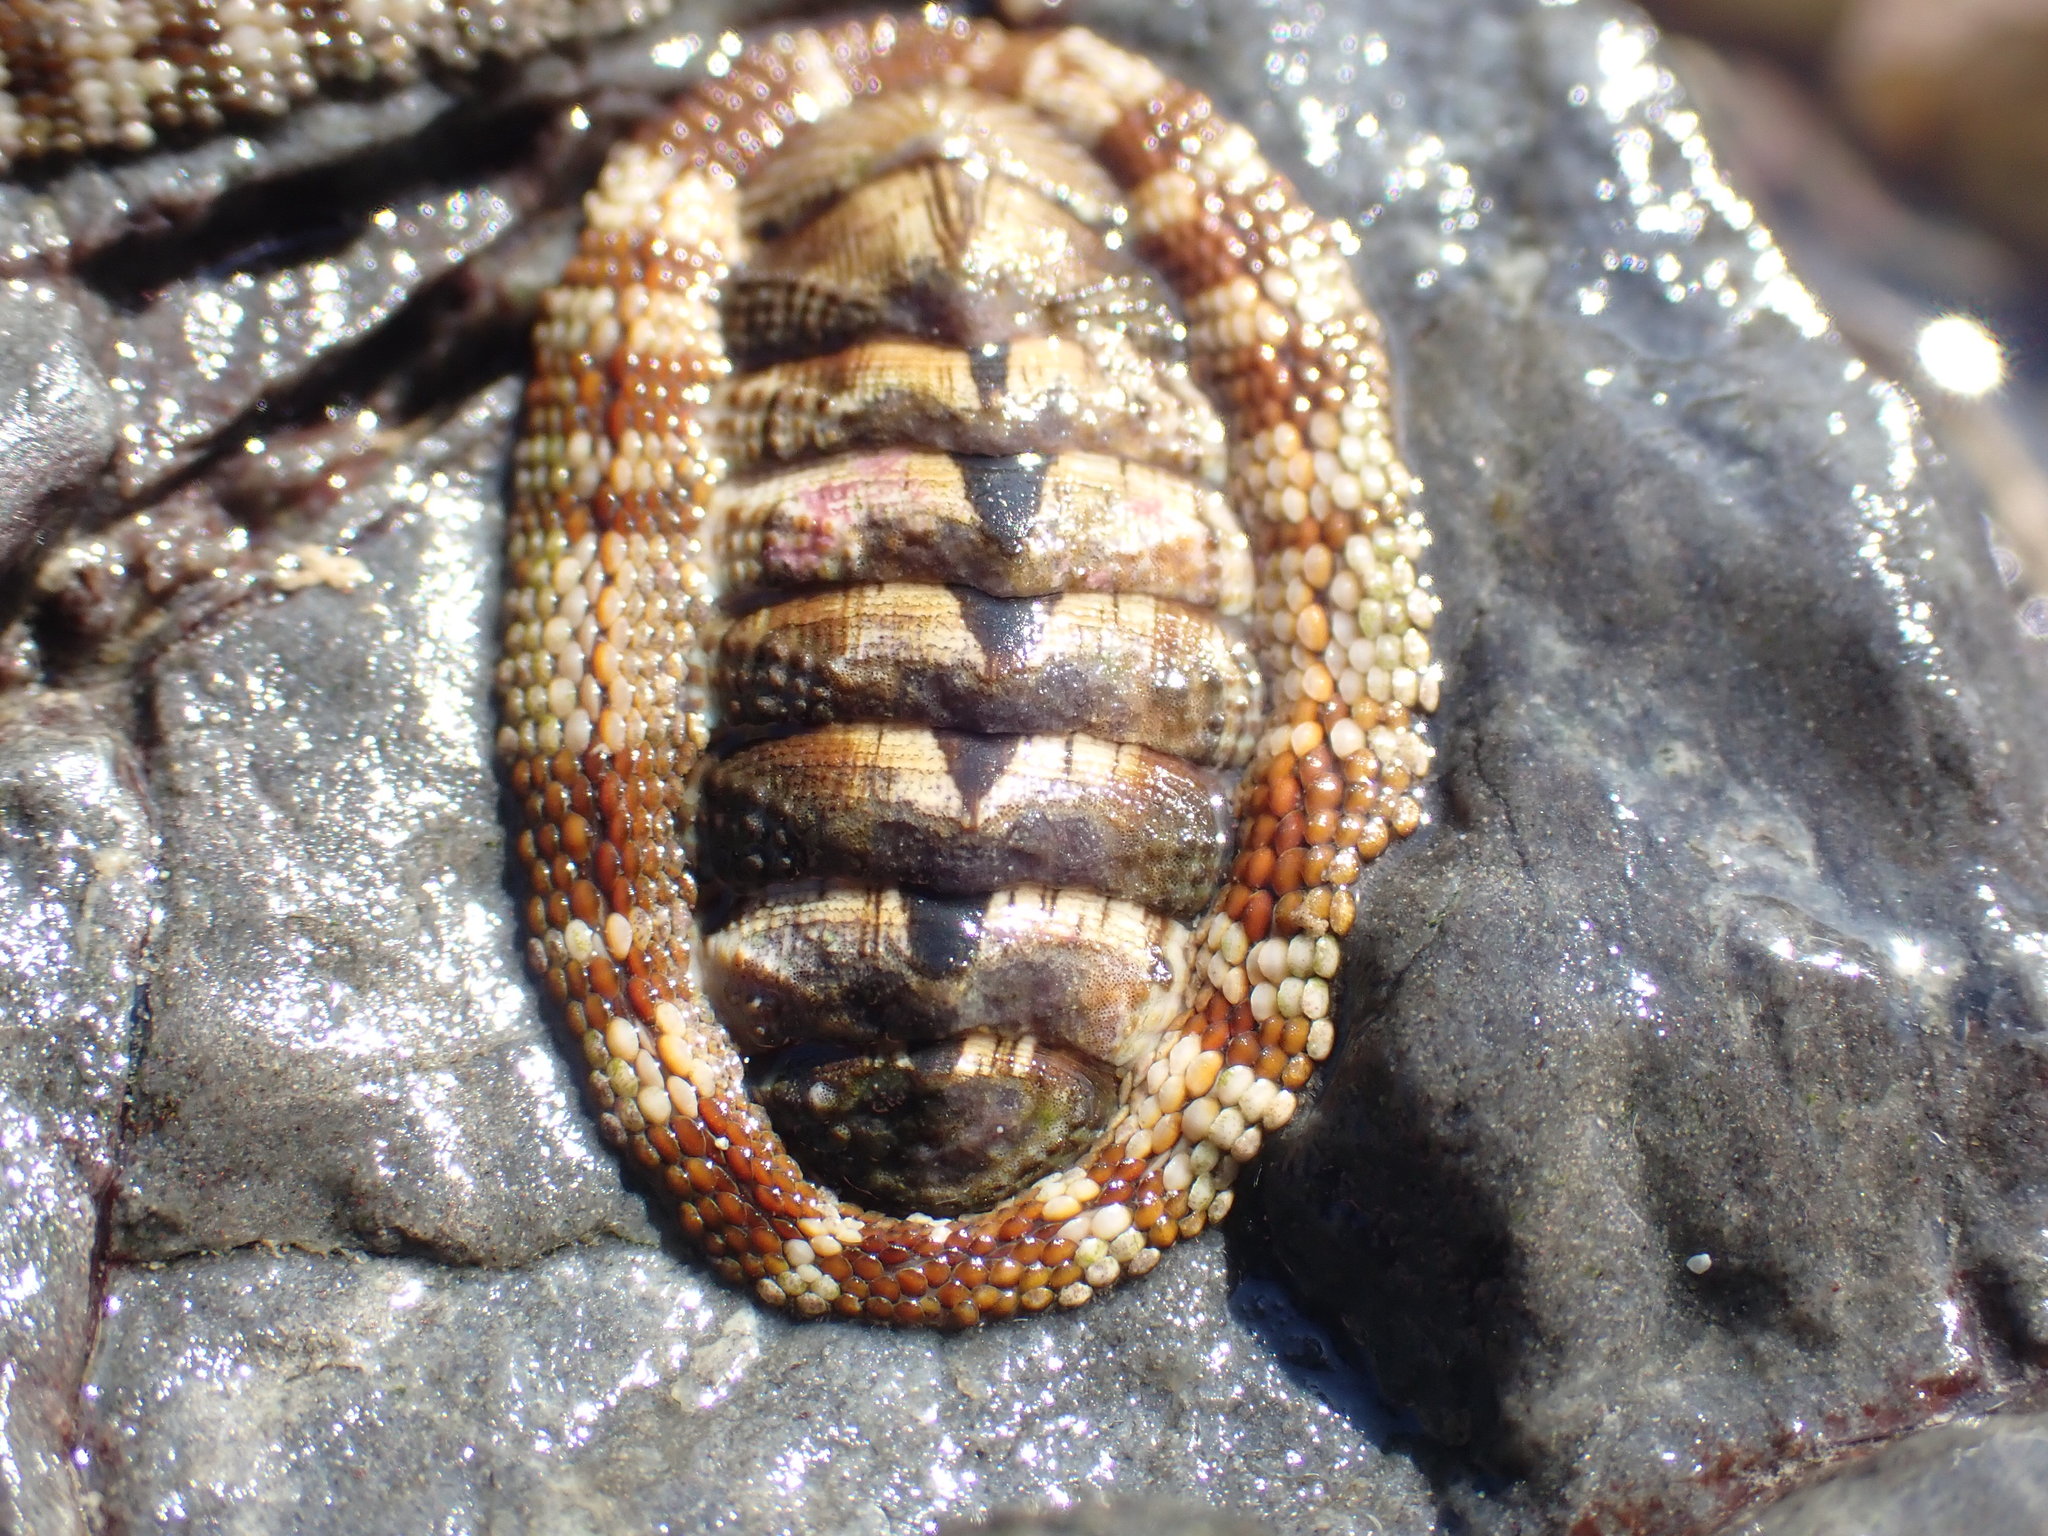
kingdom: Animalia
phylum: Mollusca
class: Polyplacophora
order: Chitonida
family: Chitonidae
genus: Sypharochiton
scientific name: Sypharochiton pelliserpentis
